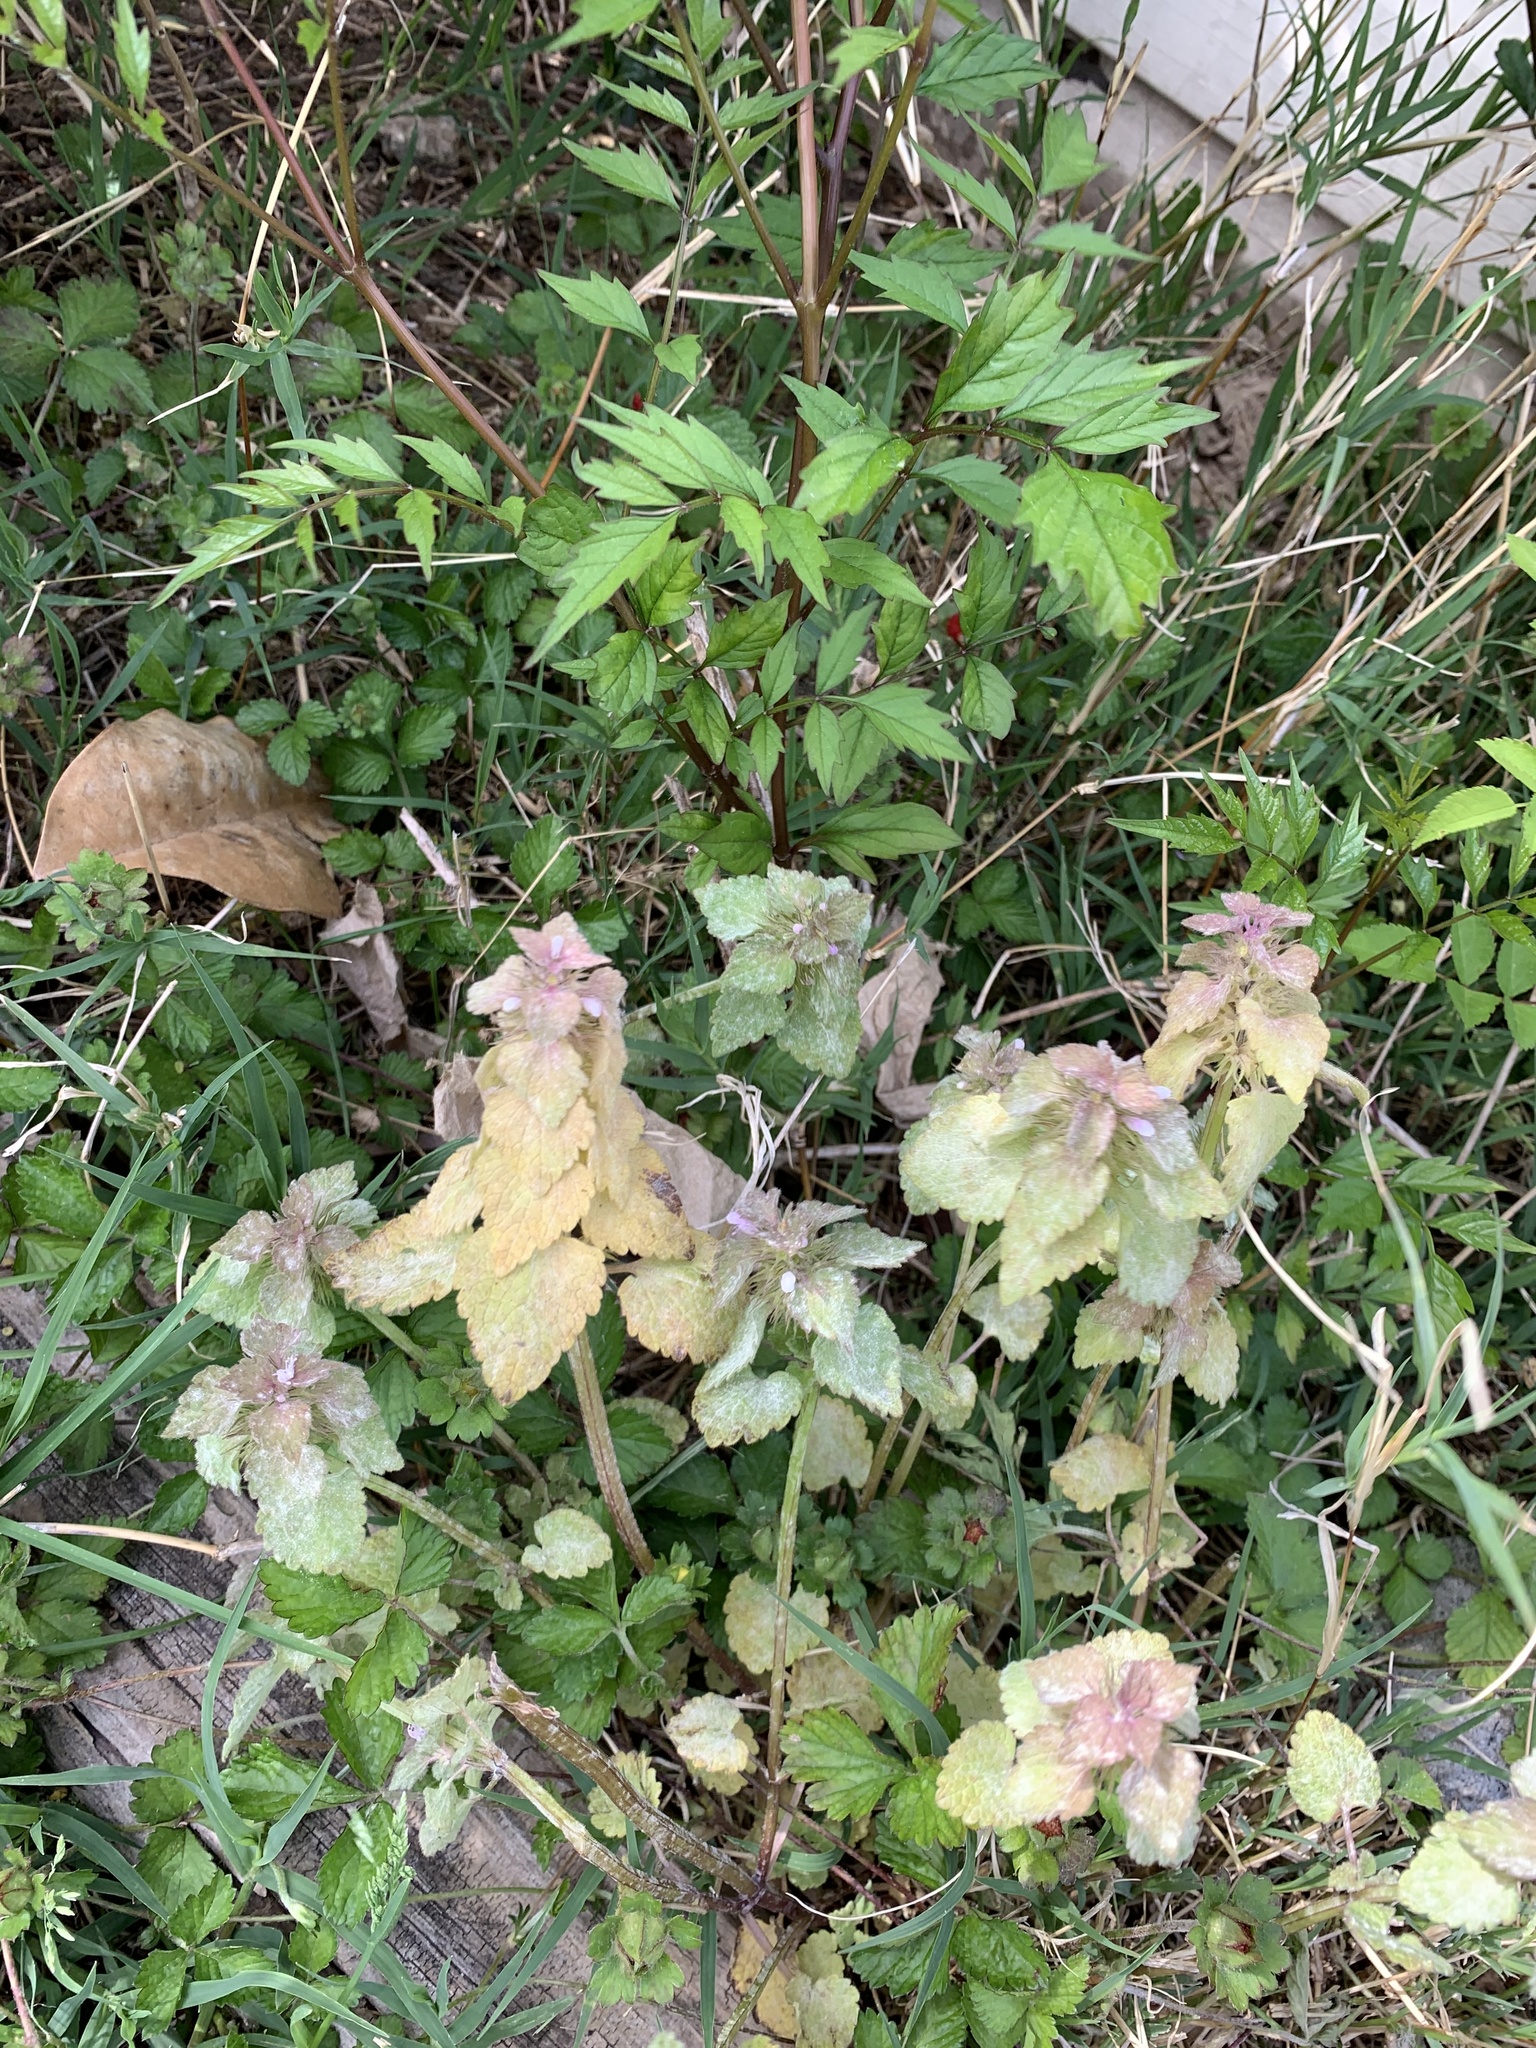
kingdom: Plantae
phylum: Tracheophyta
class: Magnoliopsida
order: Lamiales
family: Lamiaceae
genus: Lamium
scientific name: Lamium purpureum
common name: Red dead-nettle
